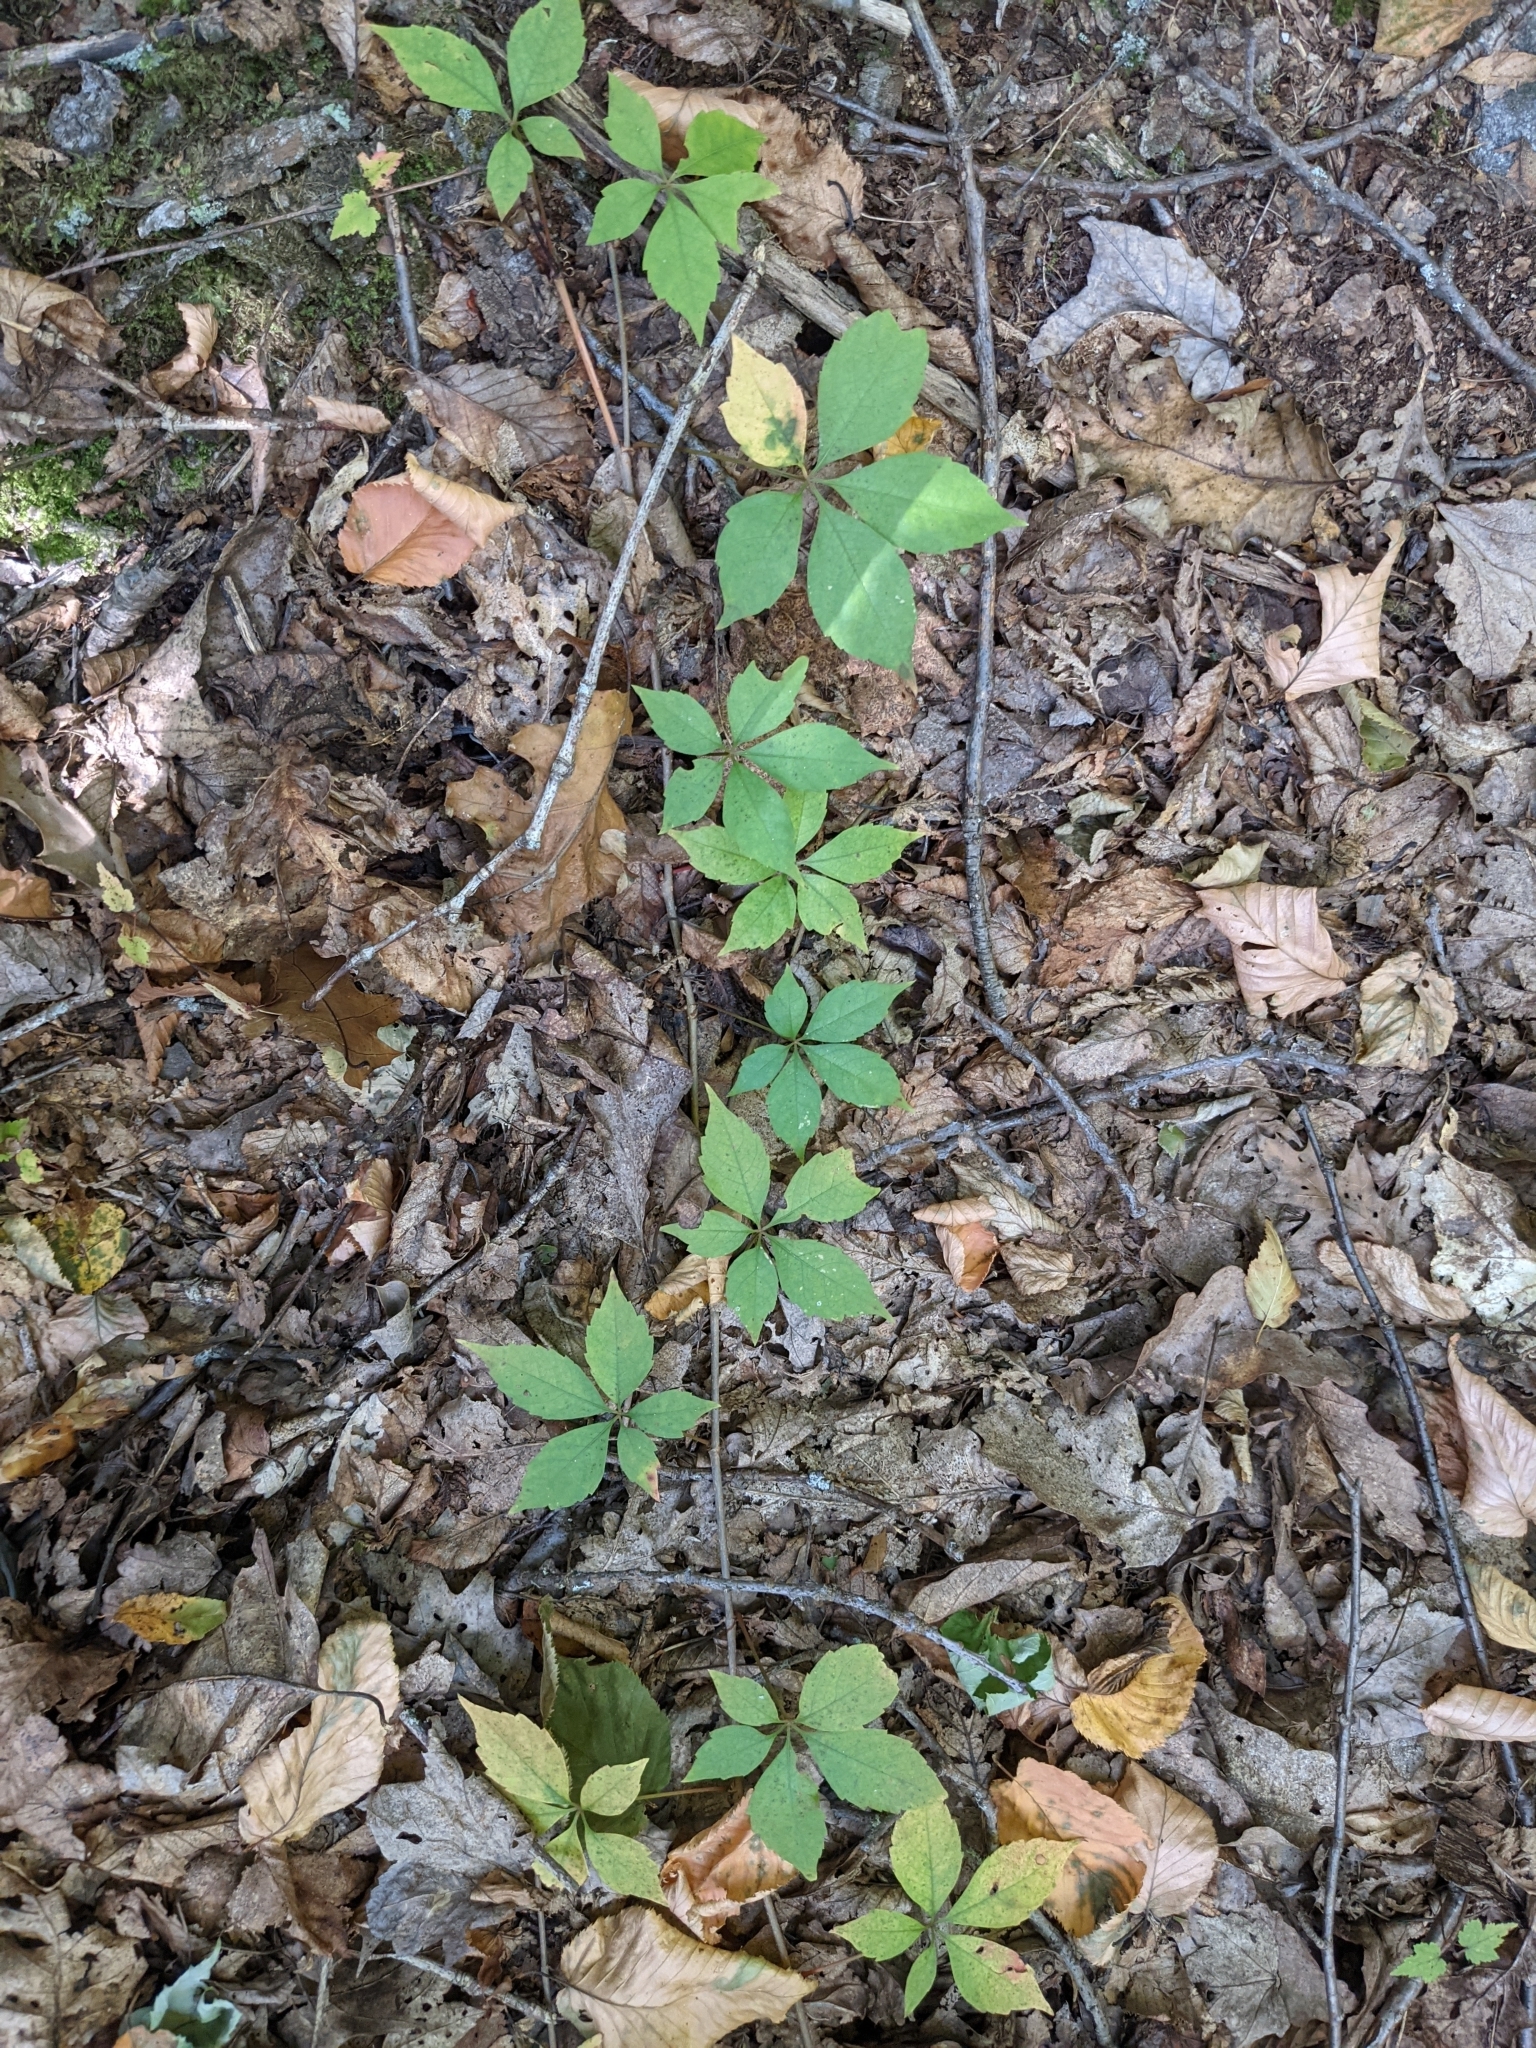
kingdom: Plantae
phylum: Tracheophyta
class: Magnoliopsida
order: Vitales
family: Vitaceae
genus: Parthenocissus
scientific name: Parthenocissus quinquefolia
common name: Virginia-creeper
